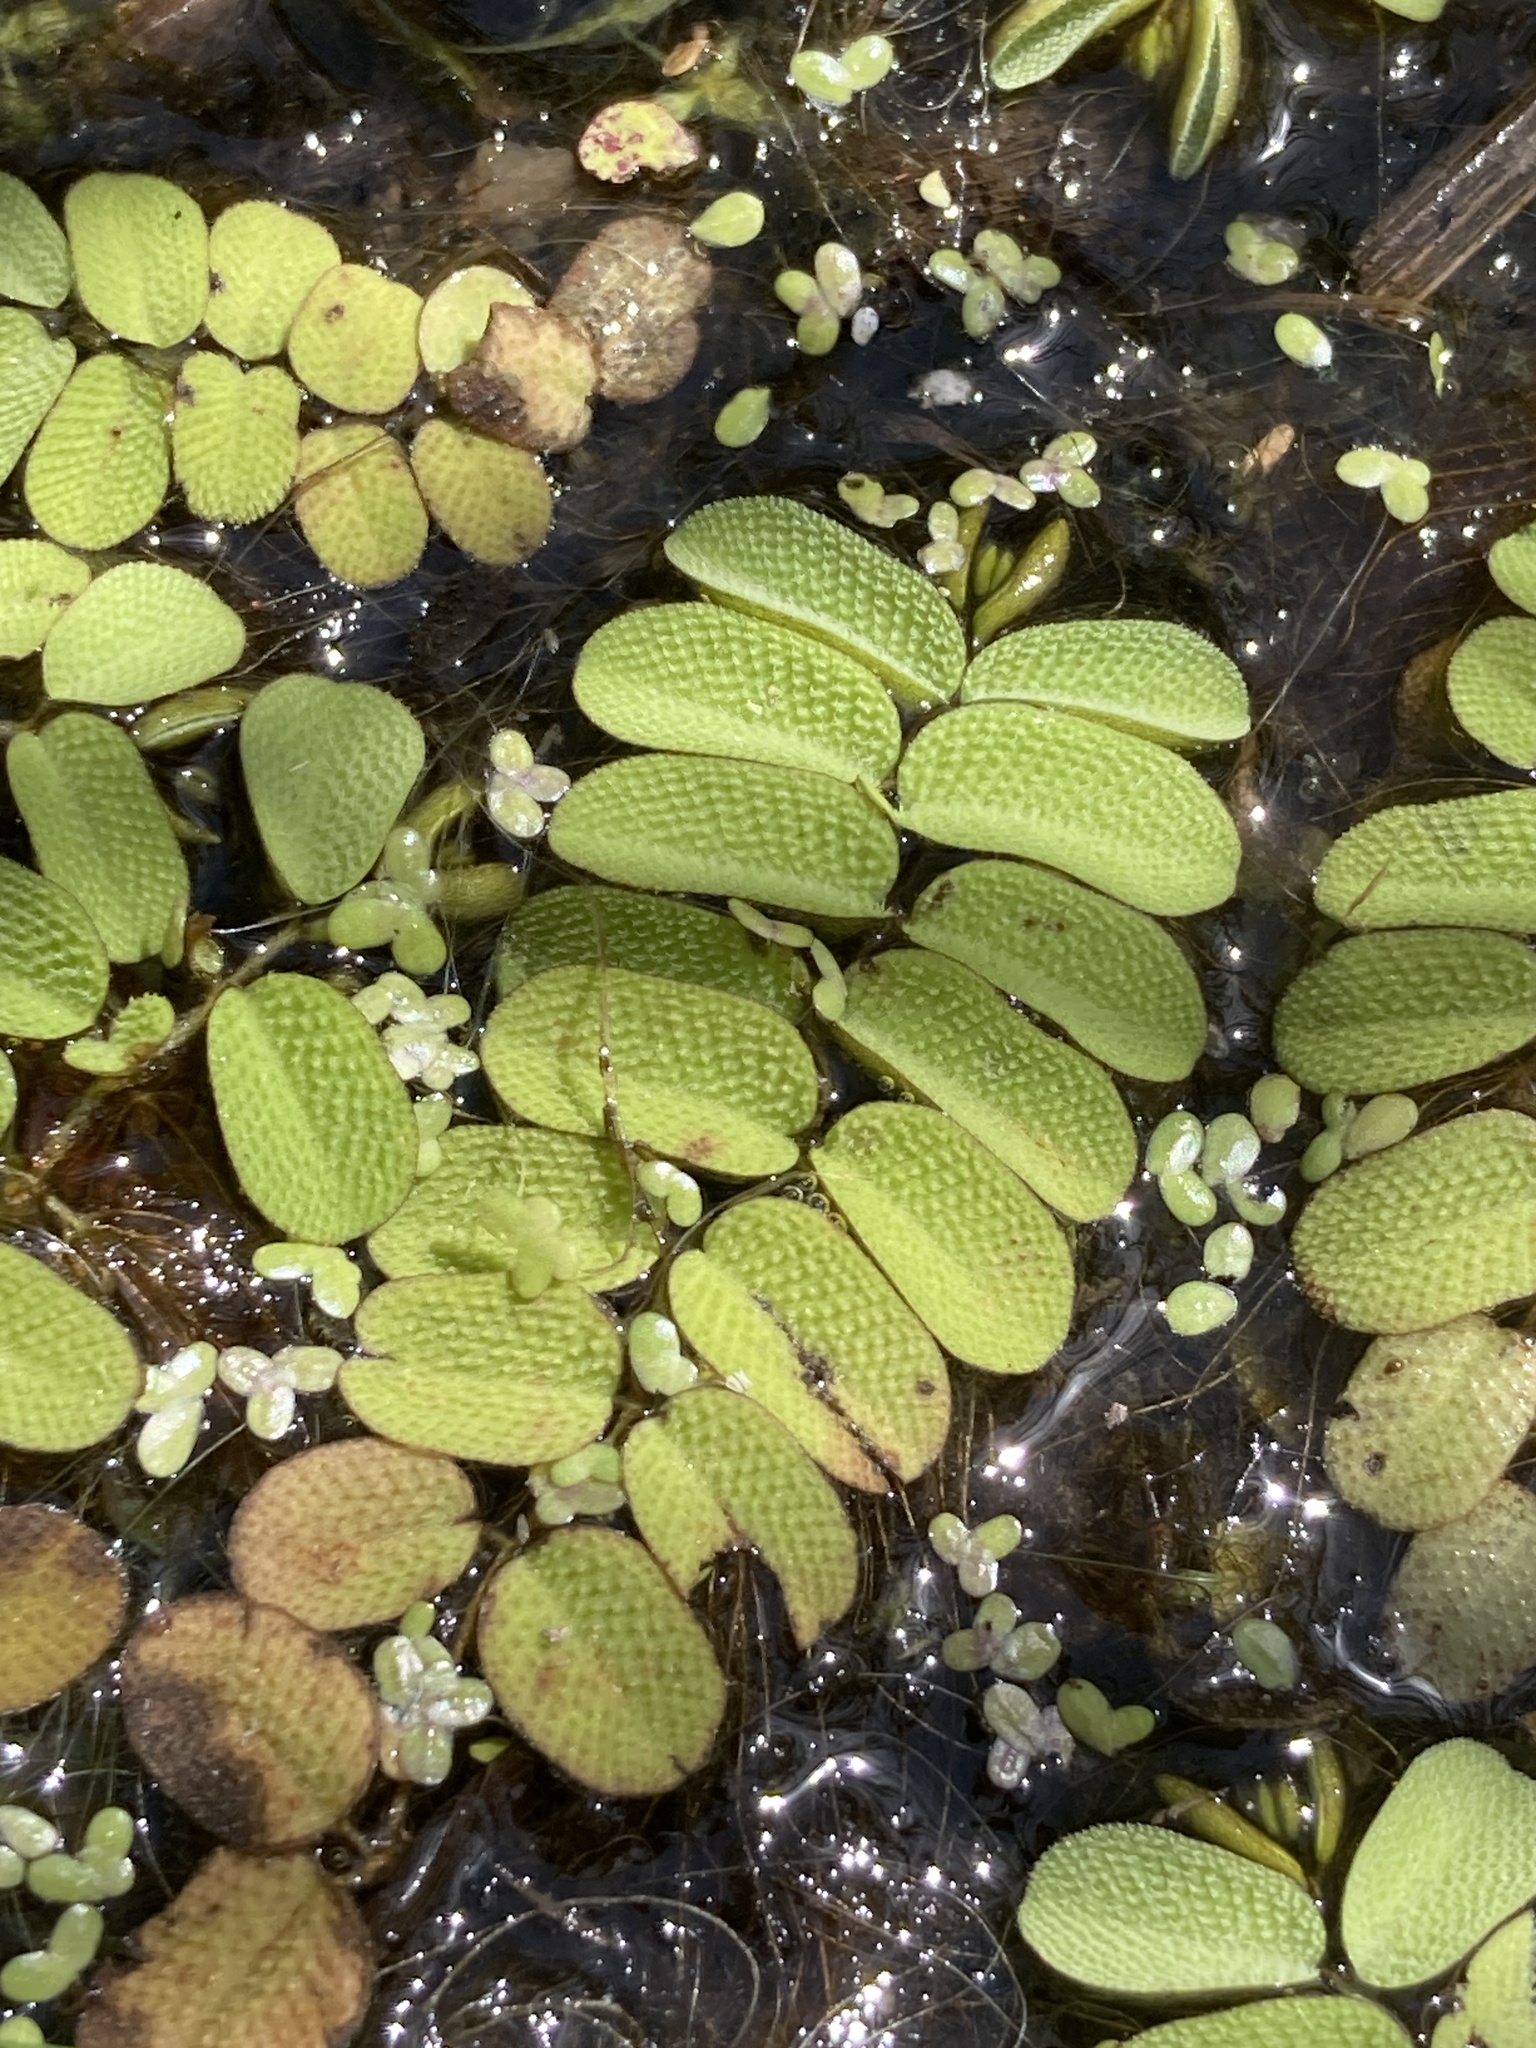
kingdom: Plantae
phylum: Tracheophyta
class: Polypodiopsida
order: Salviniales
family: Salviniaceae
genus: Salvinia
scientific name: Salvinia natans
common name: Floating fern
